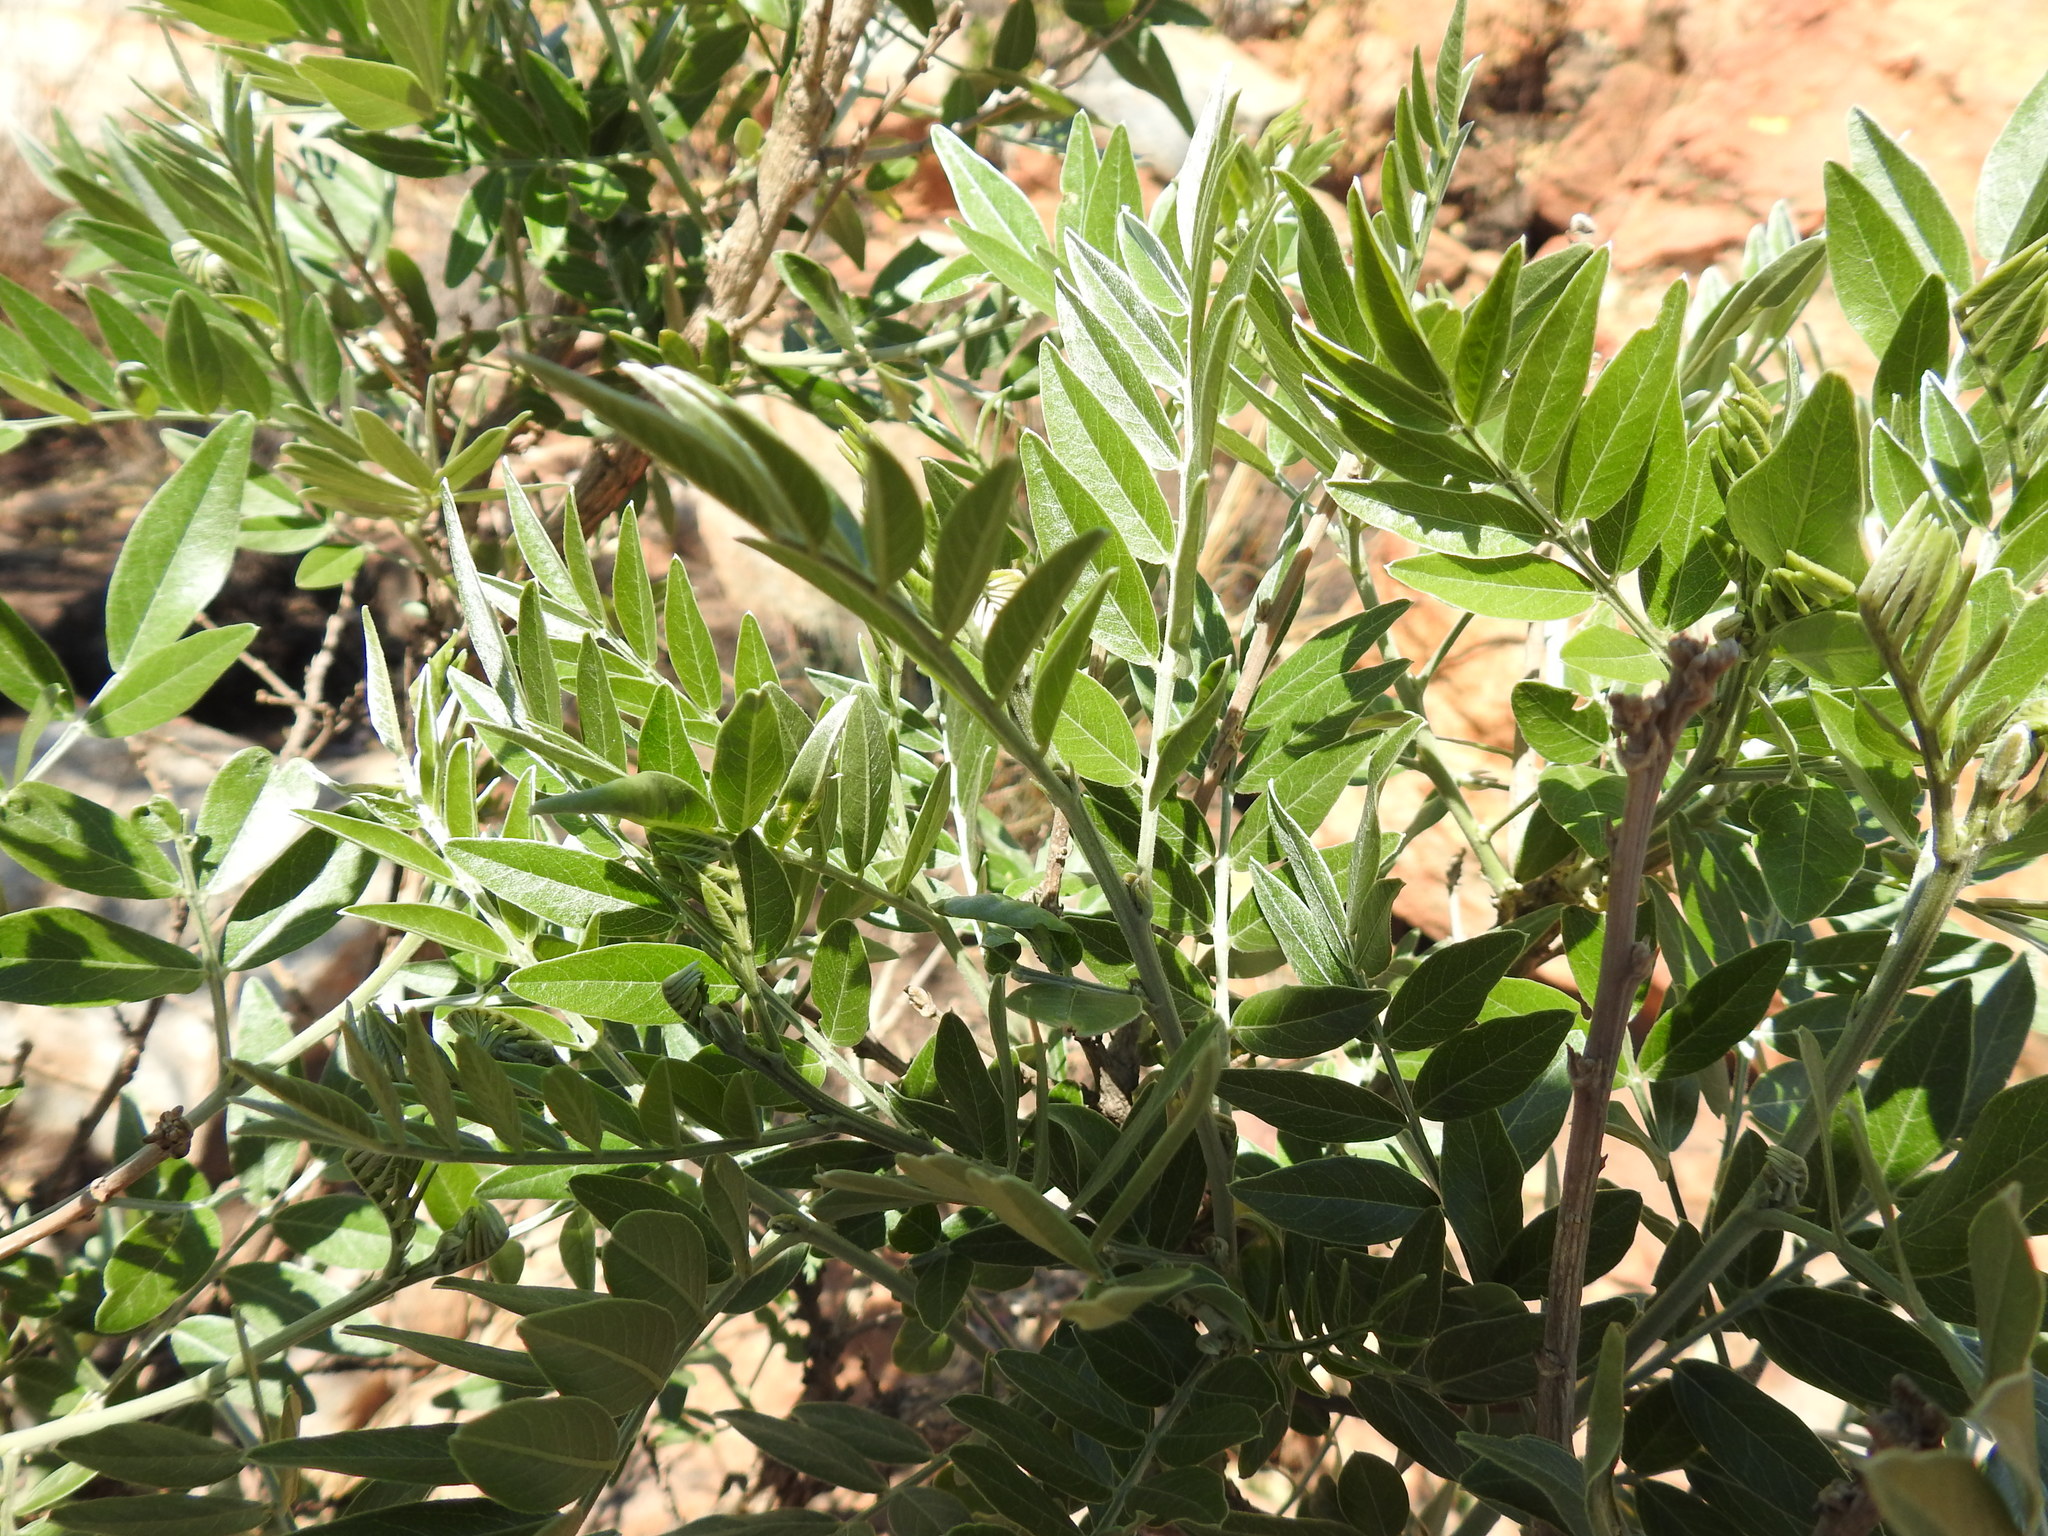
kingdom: Plantae
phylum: Tracheophyta
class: Magnoliopsida
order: Fabales
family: Fabaceae
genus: Mundulea
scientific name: Mundulea sericea
